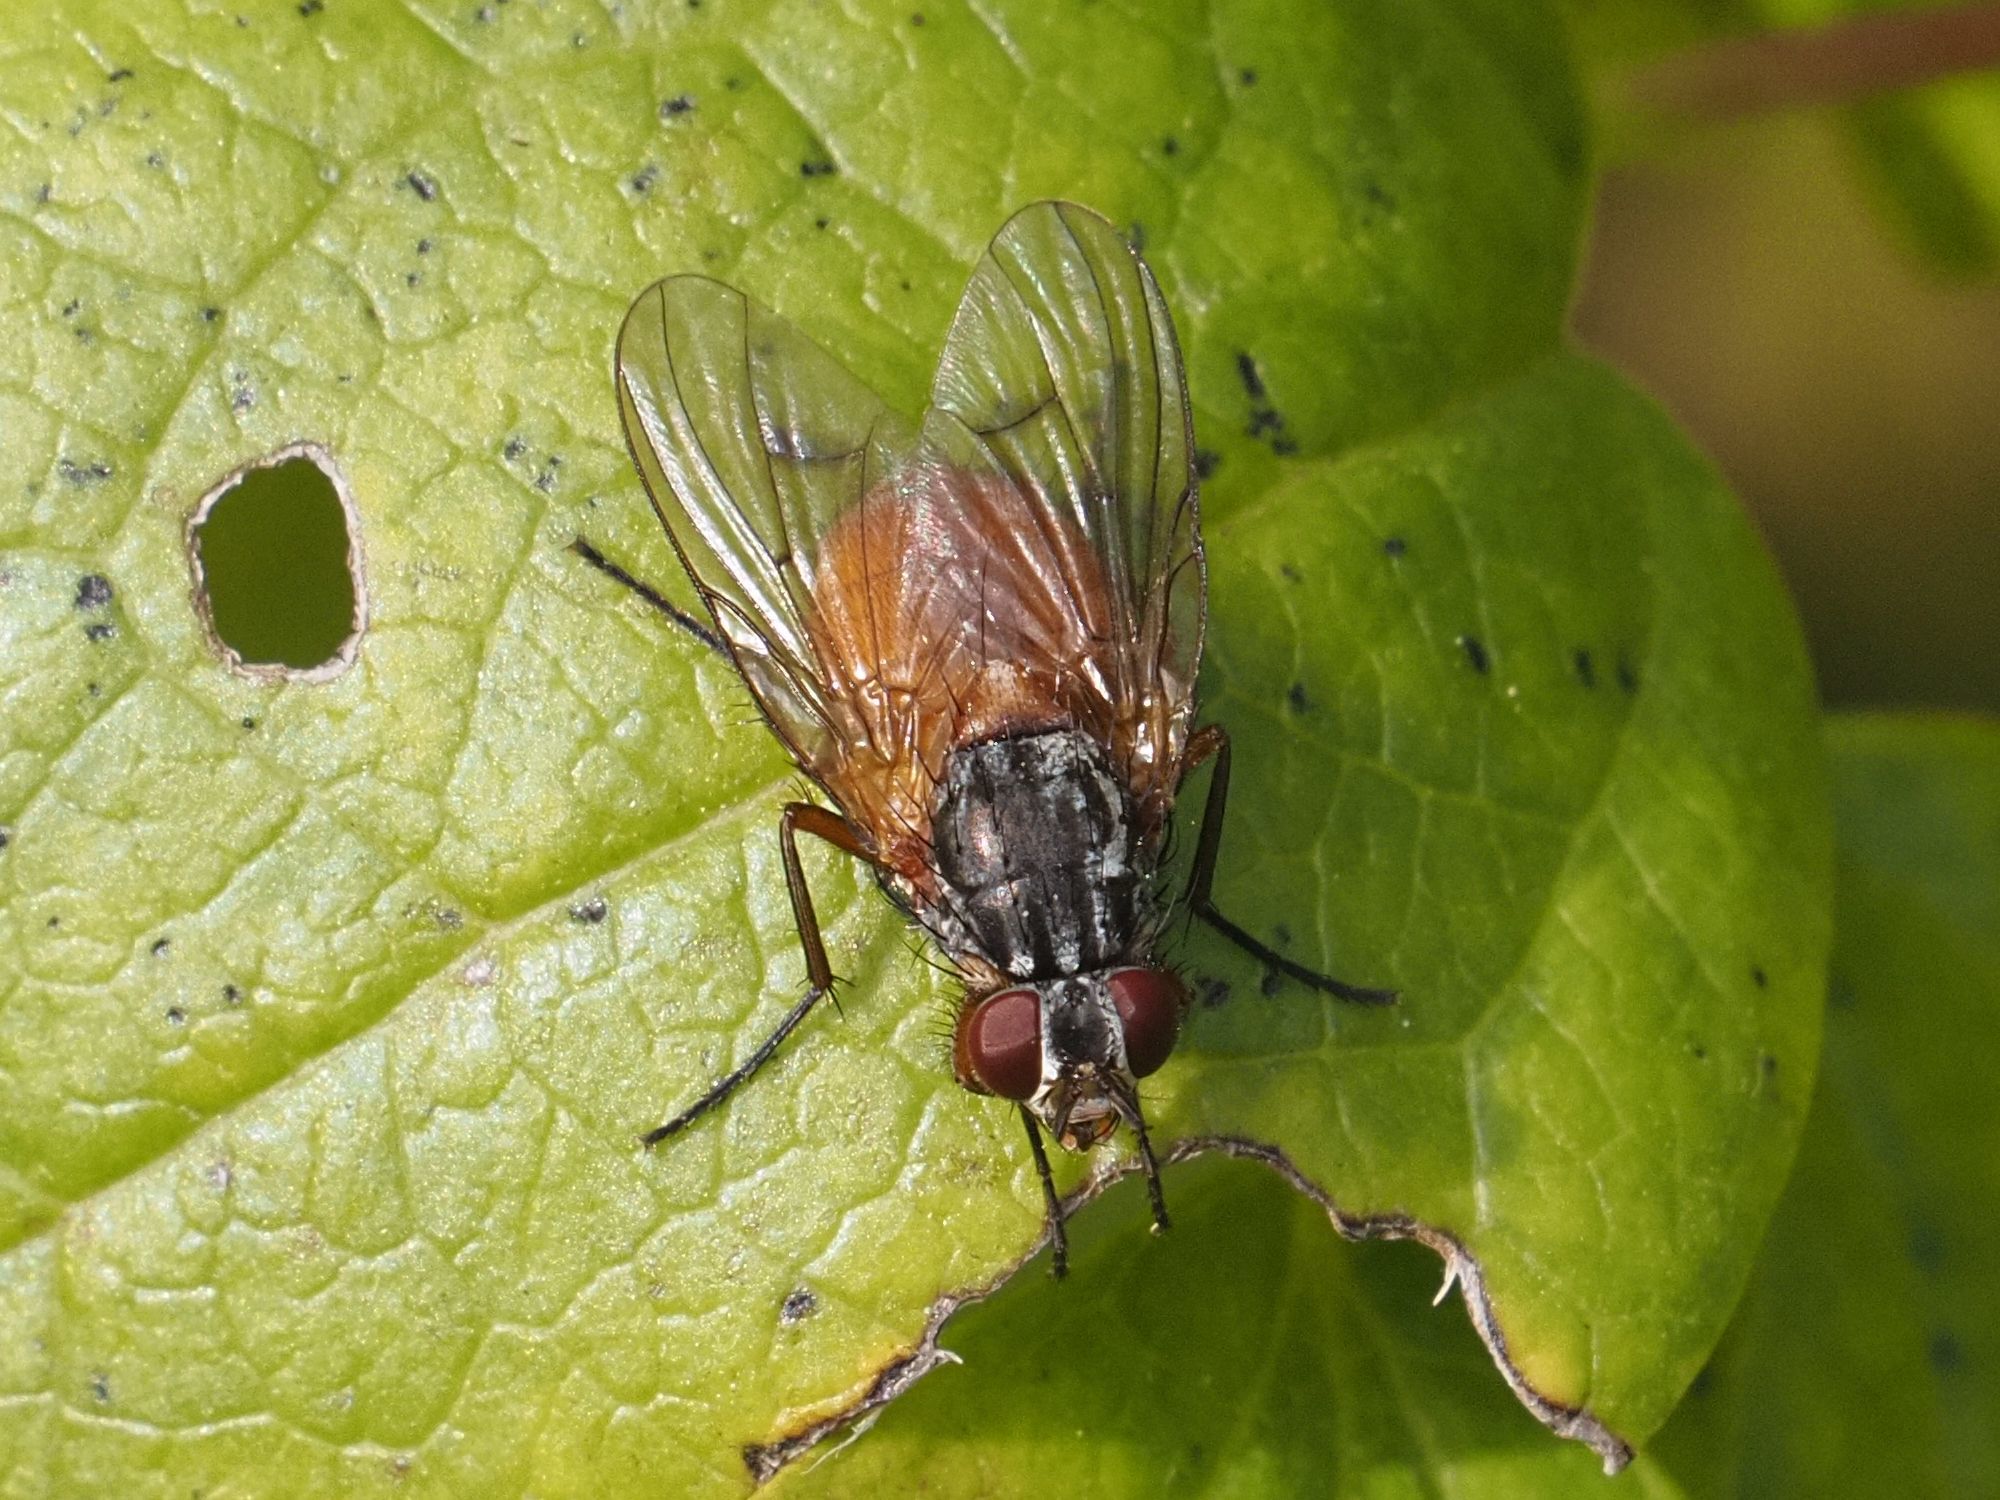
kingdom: Animalia
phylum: Arthropoda
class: Insecta
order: Diptera
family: Muscidae
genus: Phaonia
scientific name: Phaonia subventa
